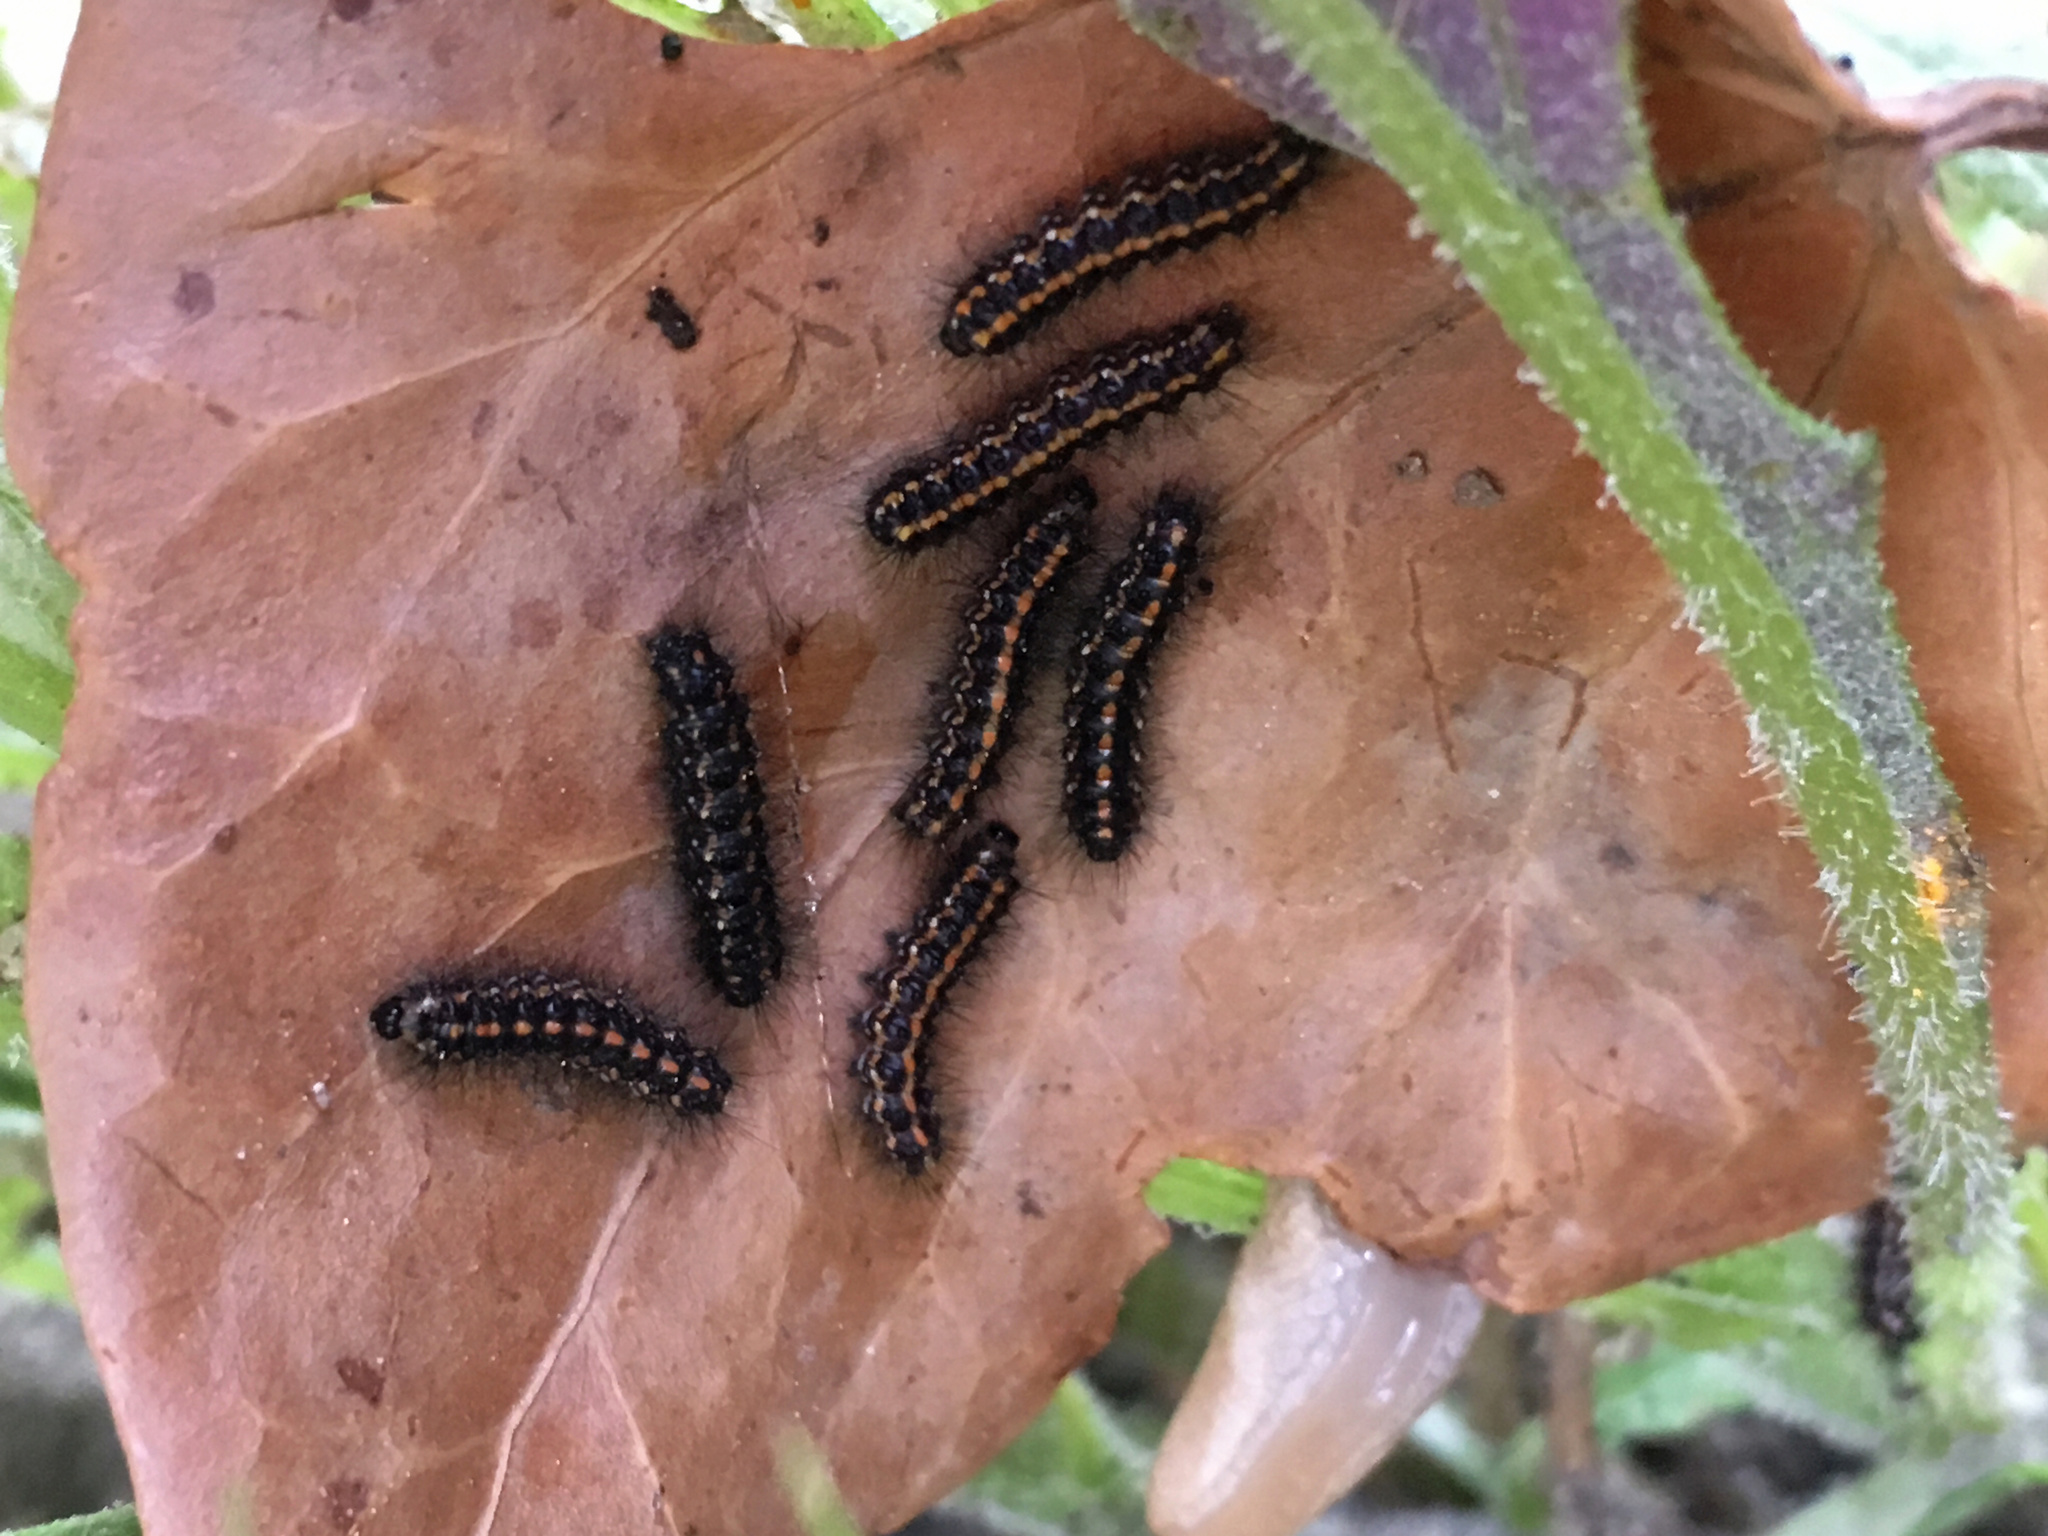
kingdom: Animalia
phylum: Arthropoda
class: Insecta
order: Lepidoptera
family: Erebidae
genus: Nyctemera
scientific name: Nyctemera annulatum
